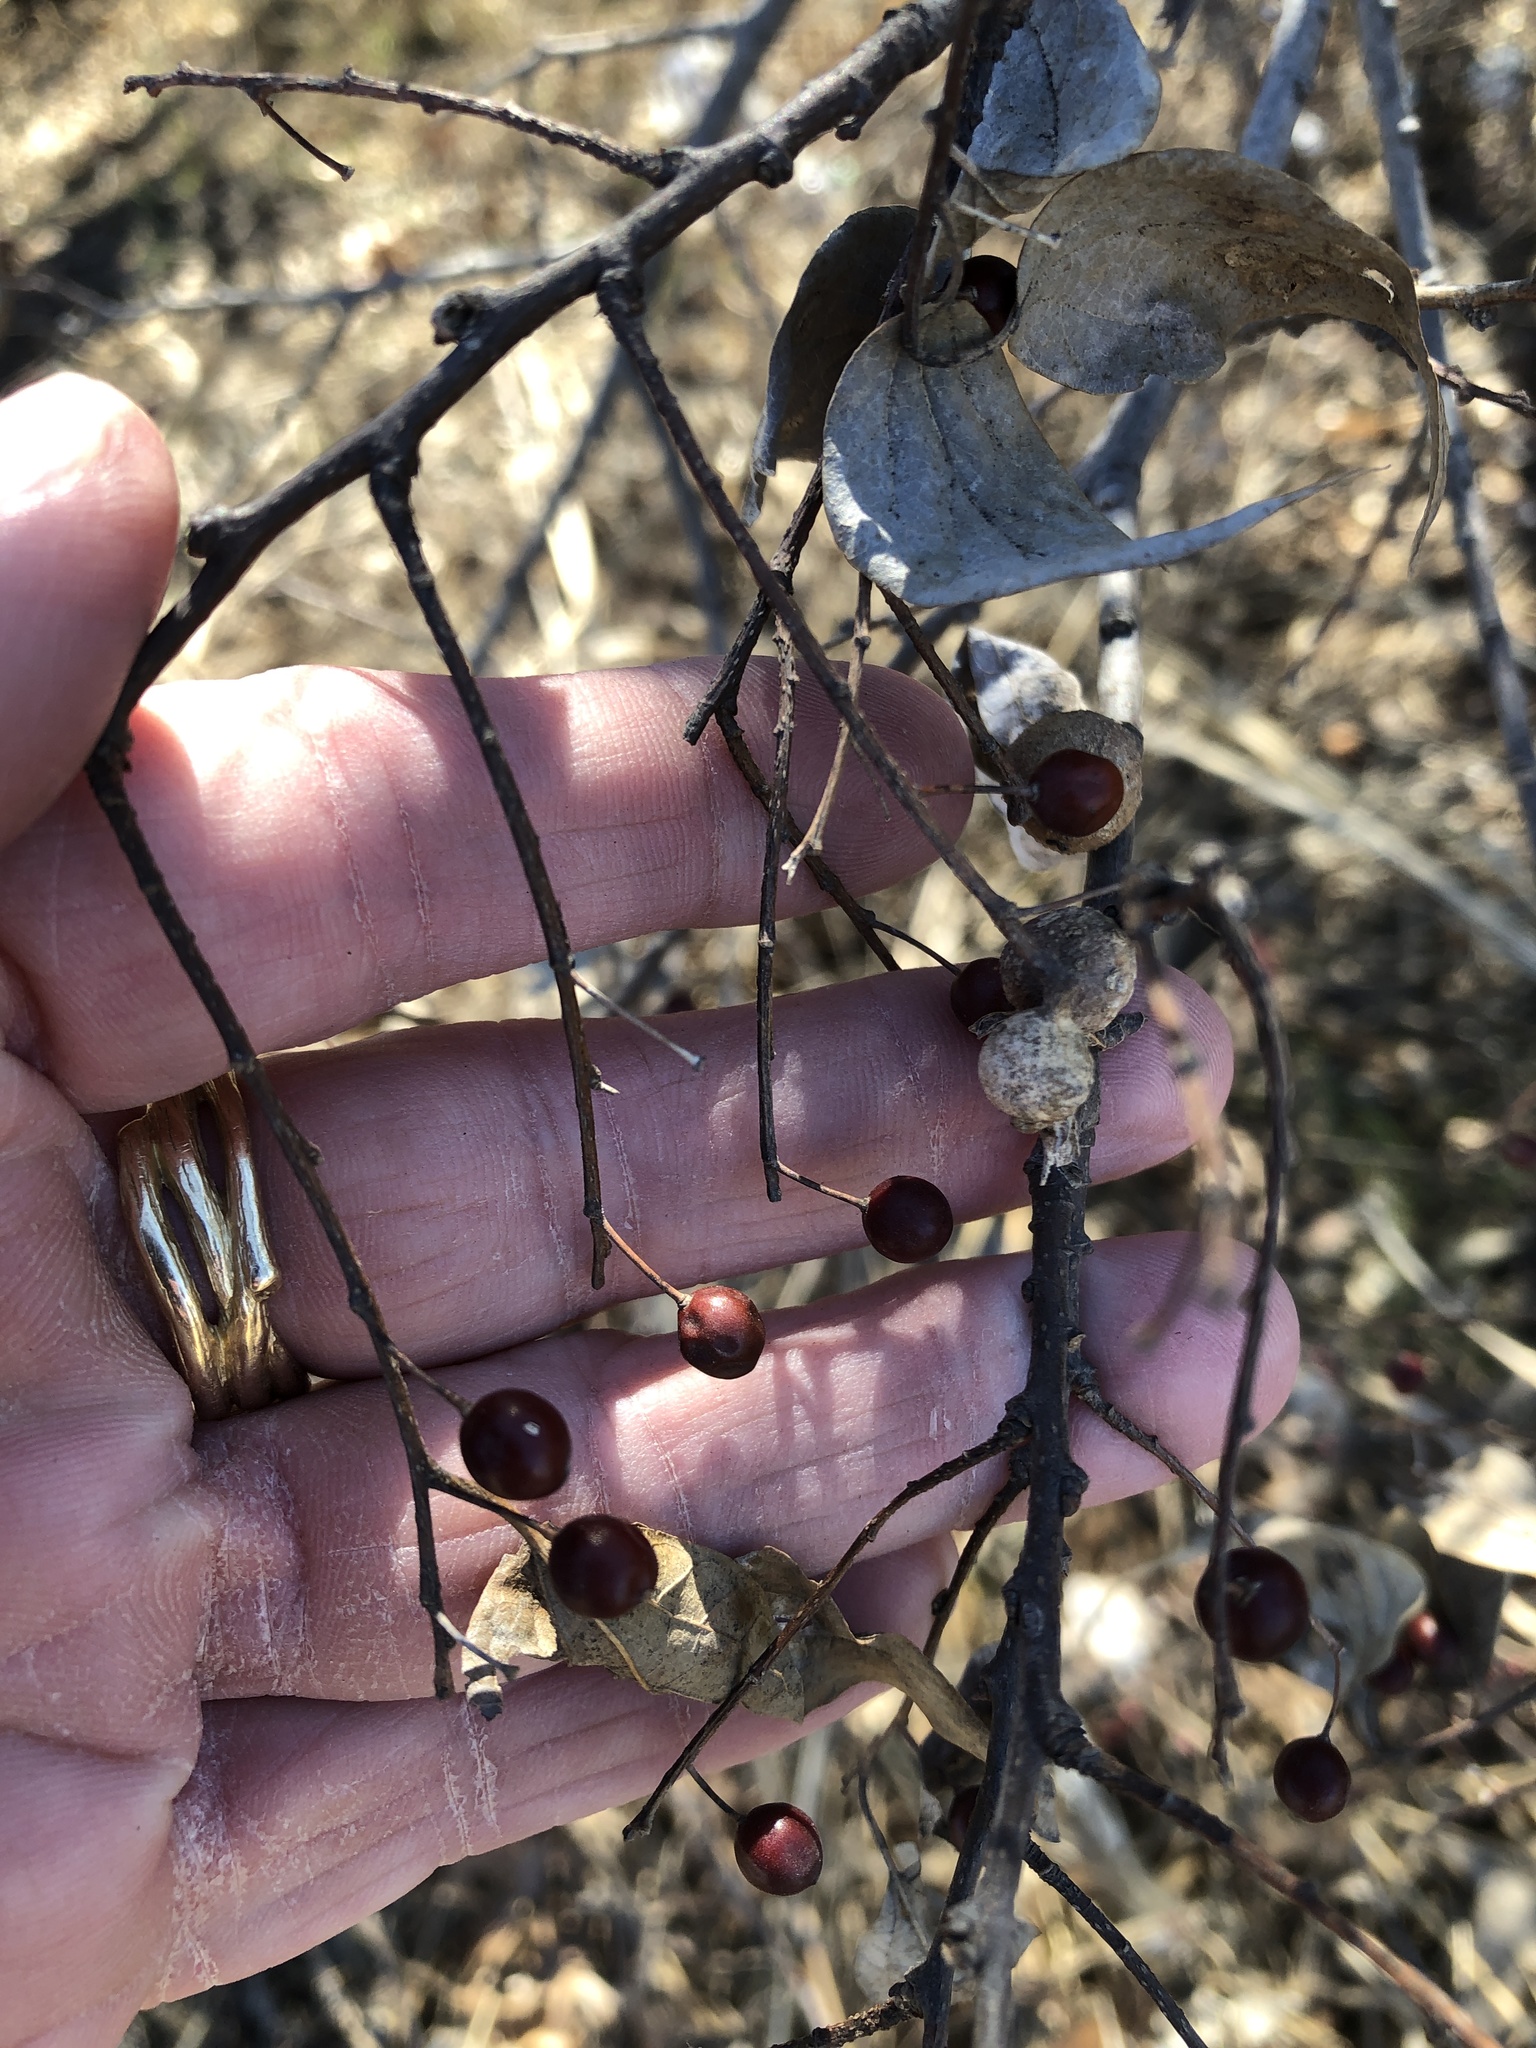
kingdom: Plantae
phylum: Tracheophyta
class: Magnoliopsida
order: Rosales
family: Cannabaceae
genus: Celtis
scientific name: Celtis laevigata
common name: Sugarberry
